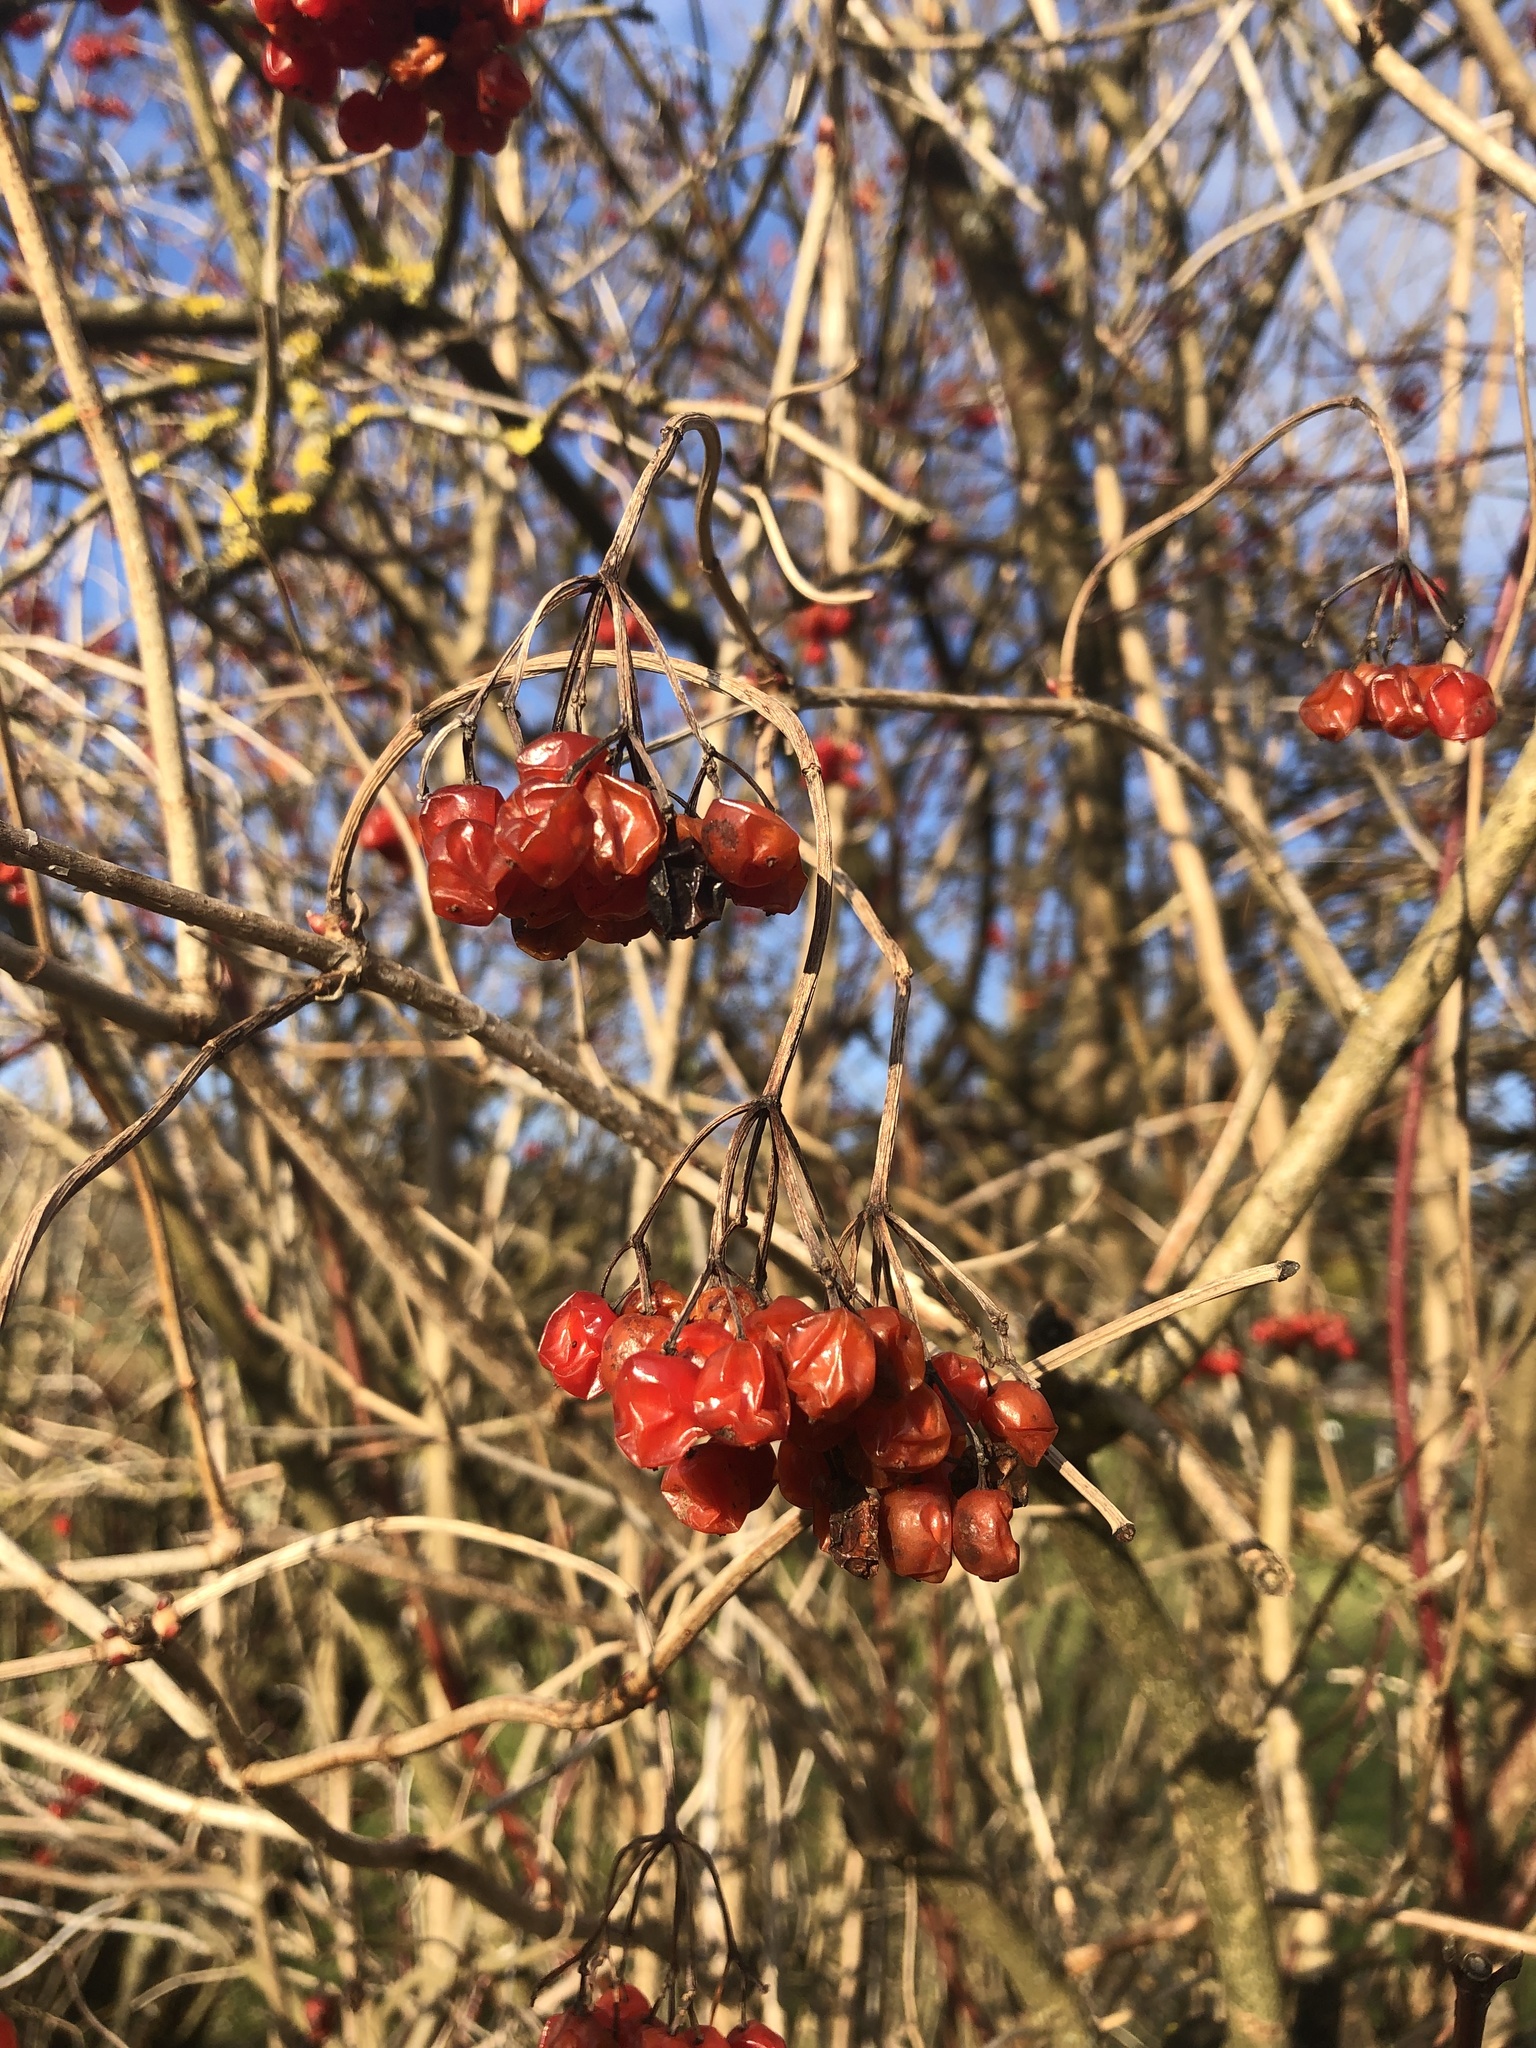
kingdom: Plantae
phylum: Tracheophyta
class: Magnoliopsida
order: Dipsacales
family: Viburnaceae
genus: Viburnum
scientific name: Viburnum opulus
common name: Guelder-rose
